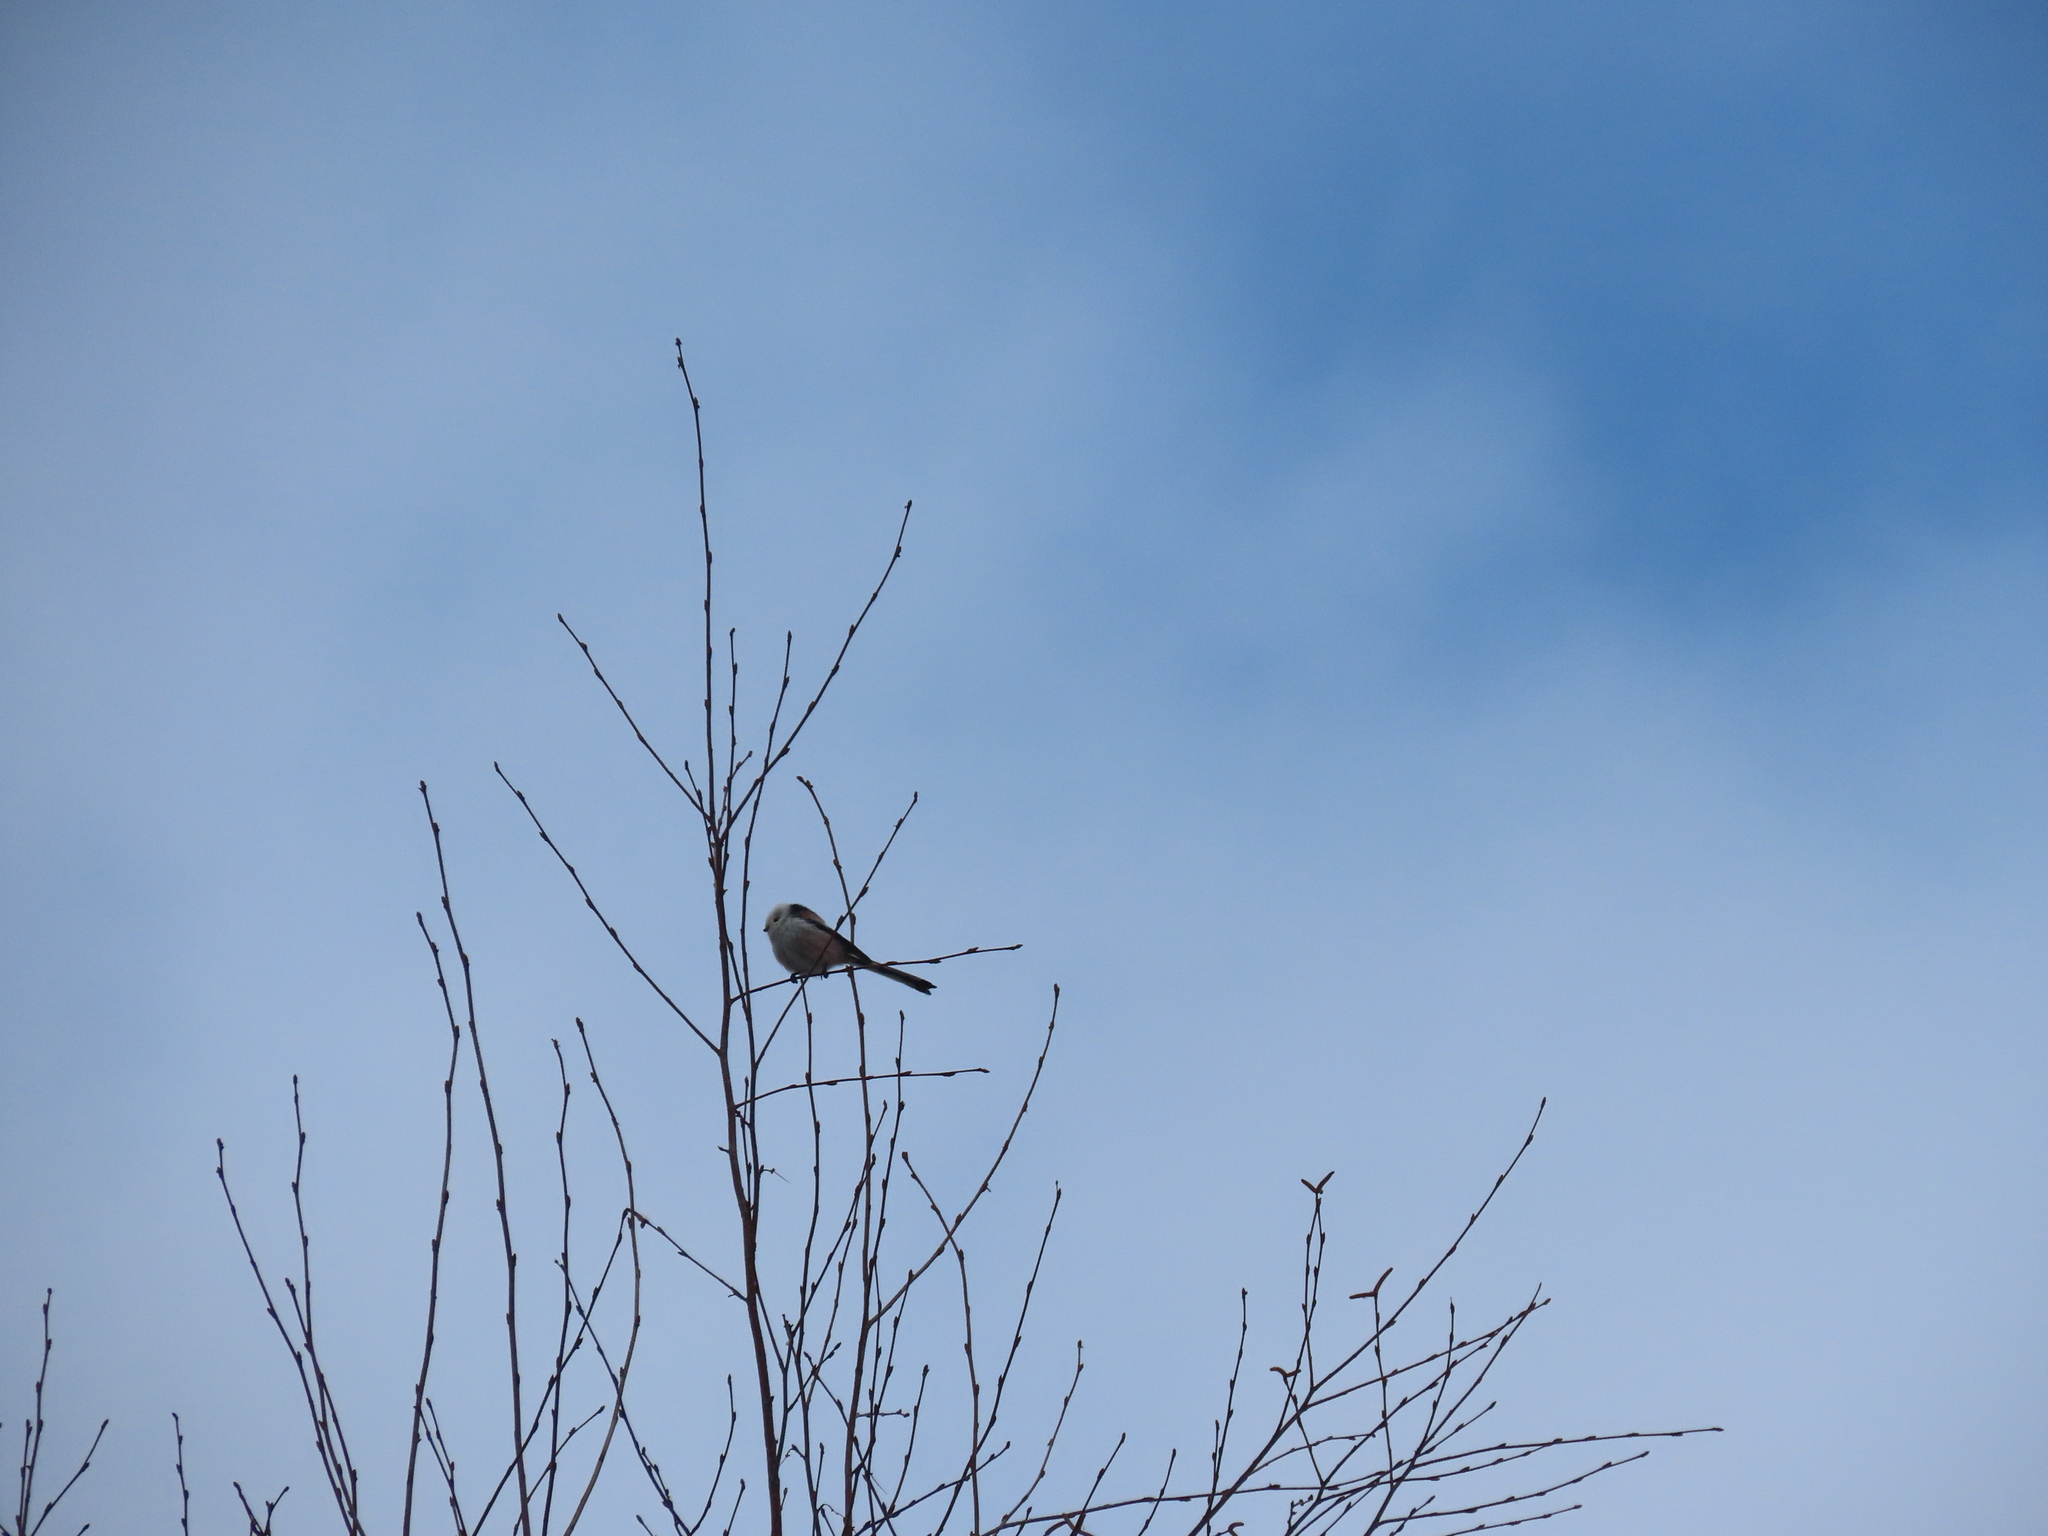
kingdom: Animalia
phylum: Chordata
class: Aves
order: Passeriformes
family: Aegithalidae
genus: Aegithalos
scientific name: Aegithalos caudatus
